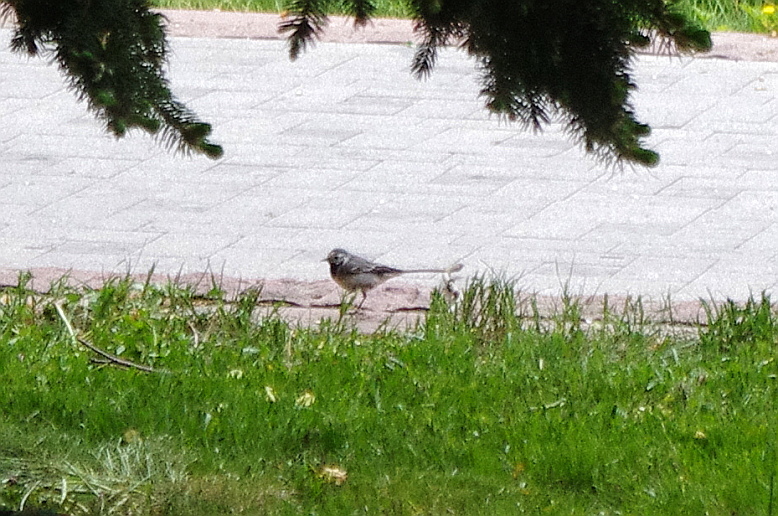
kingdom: Animalia
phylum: Chordata
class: Aves
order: Passeriformes
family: Motacillidae
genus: Motacilla
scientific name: Motacilla alba
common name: White wagtail
